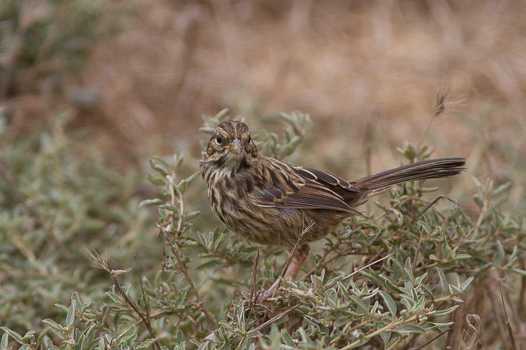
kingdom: Animalia
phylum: Chordata
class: Aves
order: Passeriformes
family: Passerellidae
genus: Melospiza
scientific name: Melospiza melodia
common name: Song sparrow
